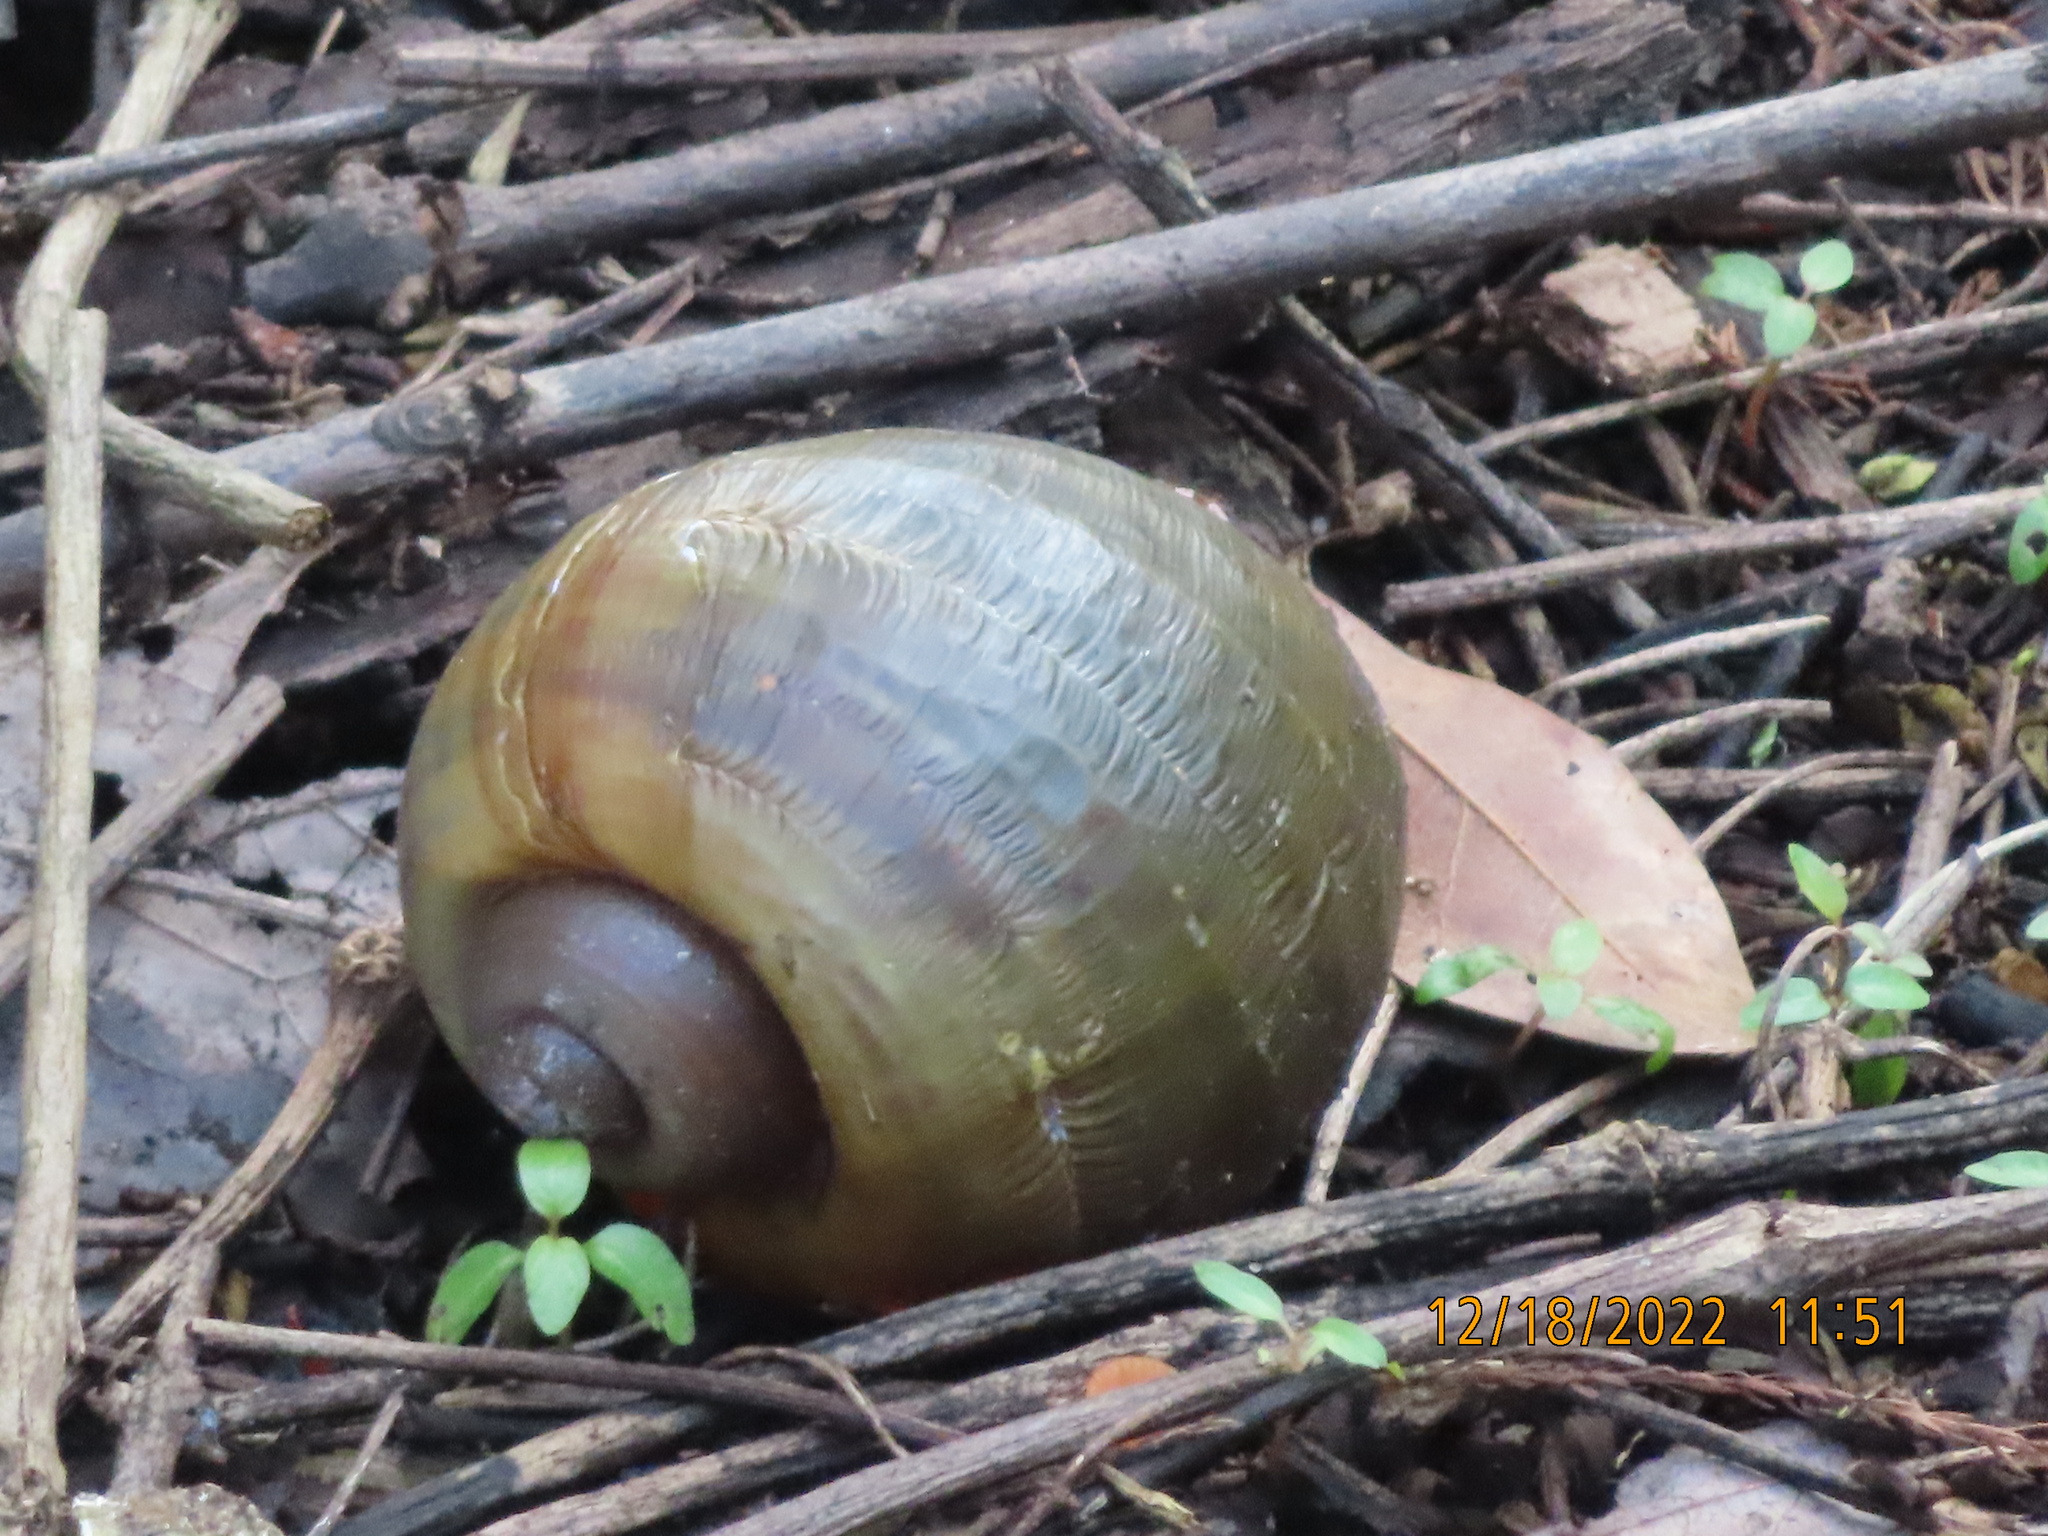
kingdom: Animalia
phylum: Mollusca
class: Gastropoda
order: Architaenioglossa
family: Ampullariidae
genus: Pomacea
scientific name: Pomacea maculata
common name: Giant applesnail
